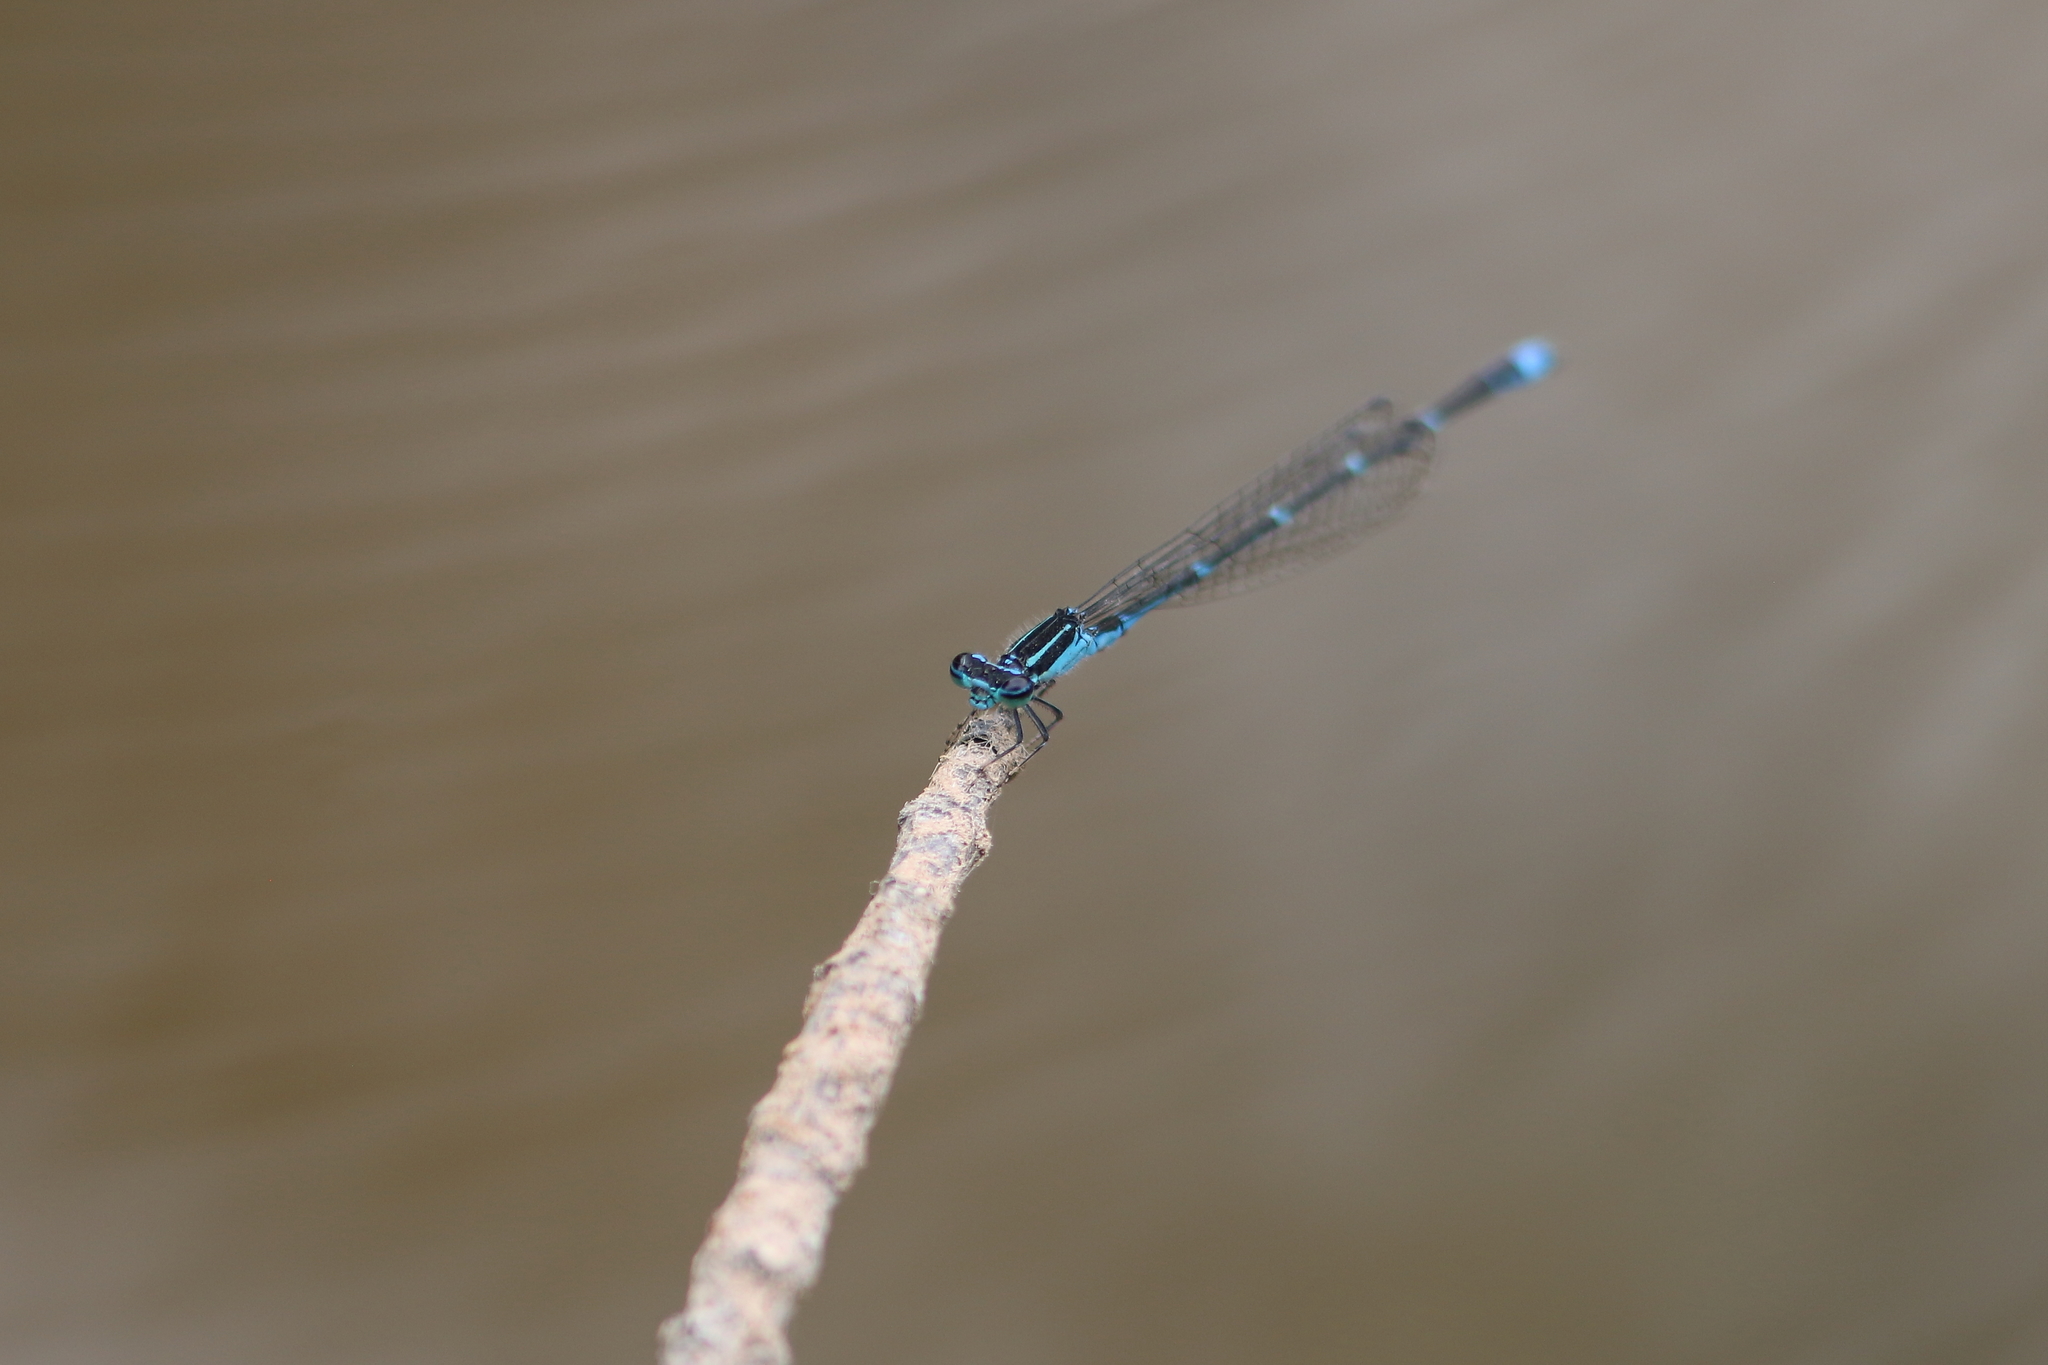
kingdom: Animalia
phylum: Arthropoda
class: Insecta
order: Odonata
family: Coenagrionidae
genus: Enallagma
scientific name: Enallagma exsulans
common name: Stream bluet
